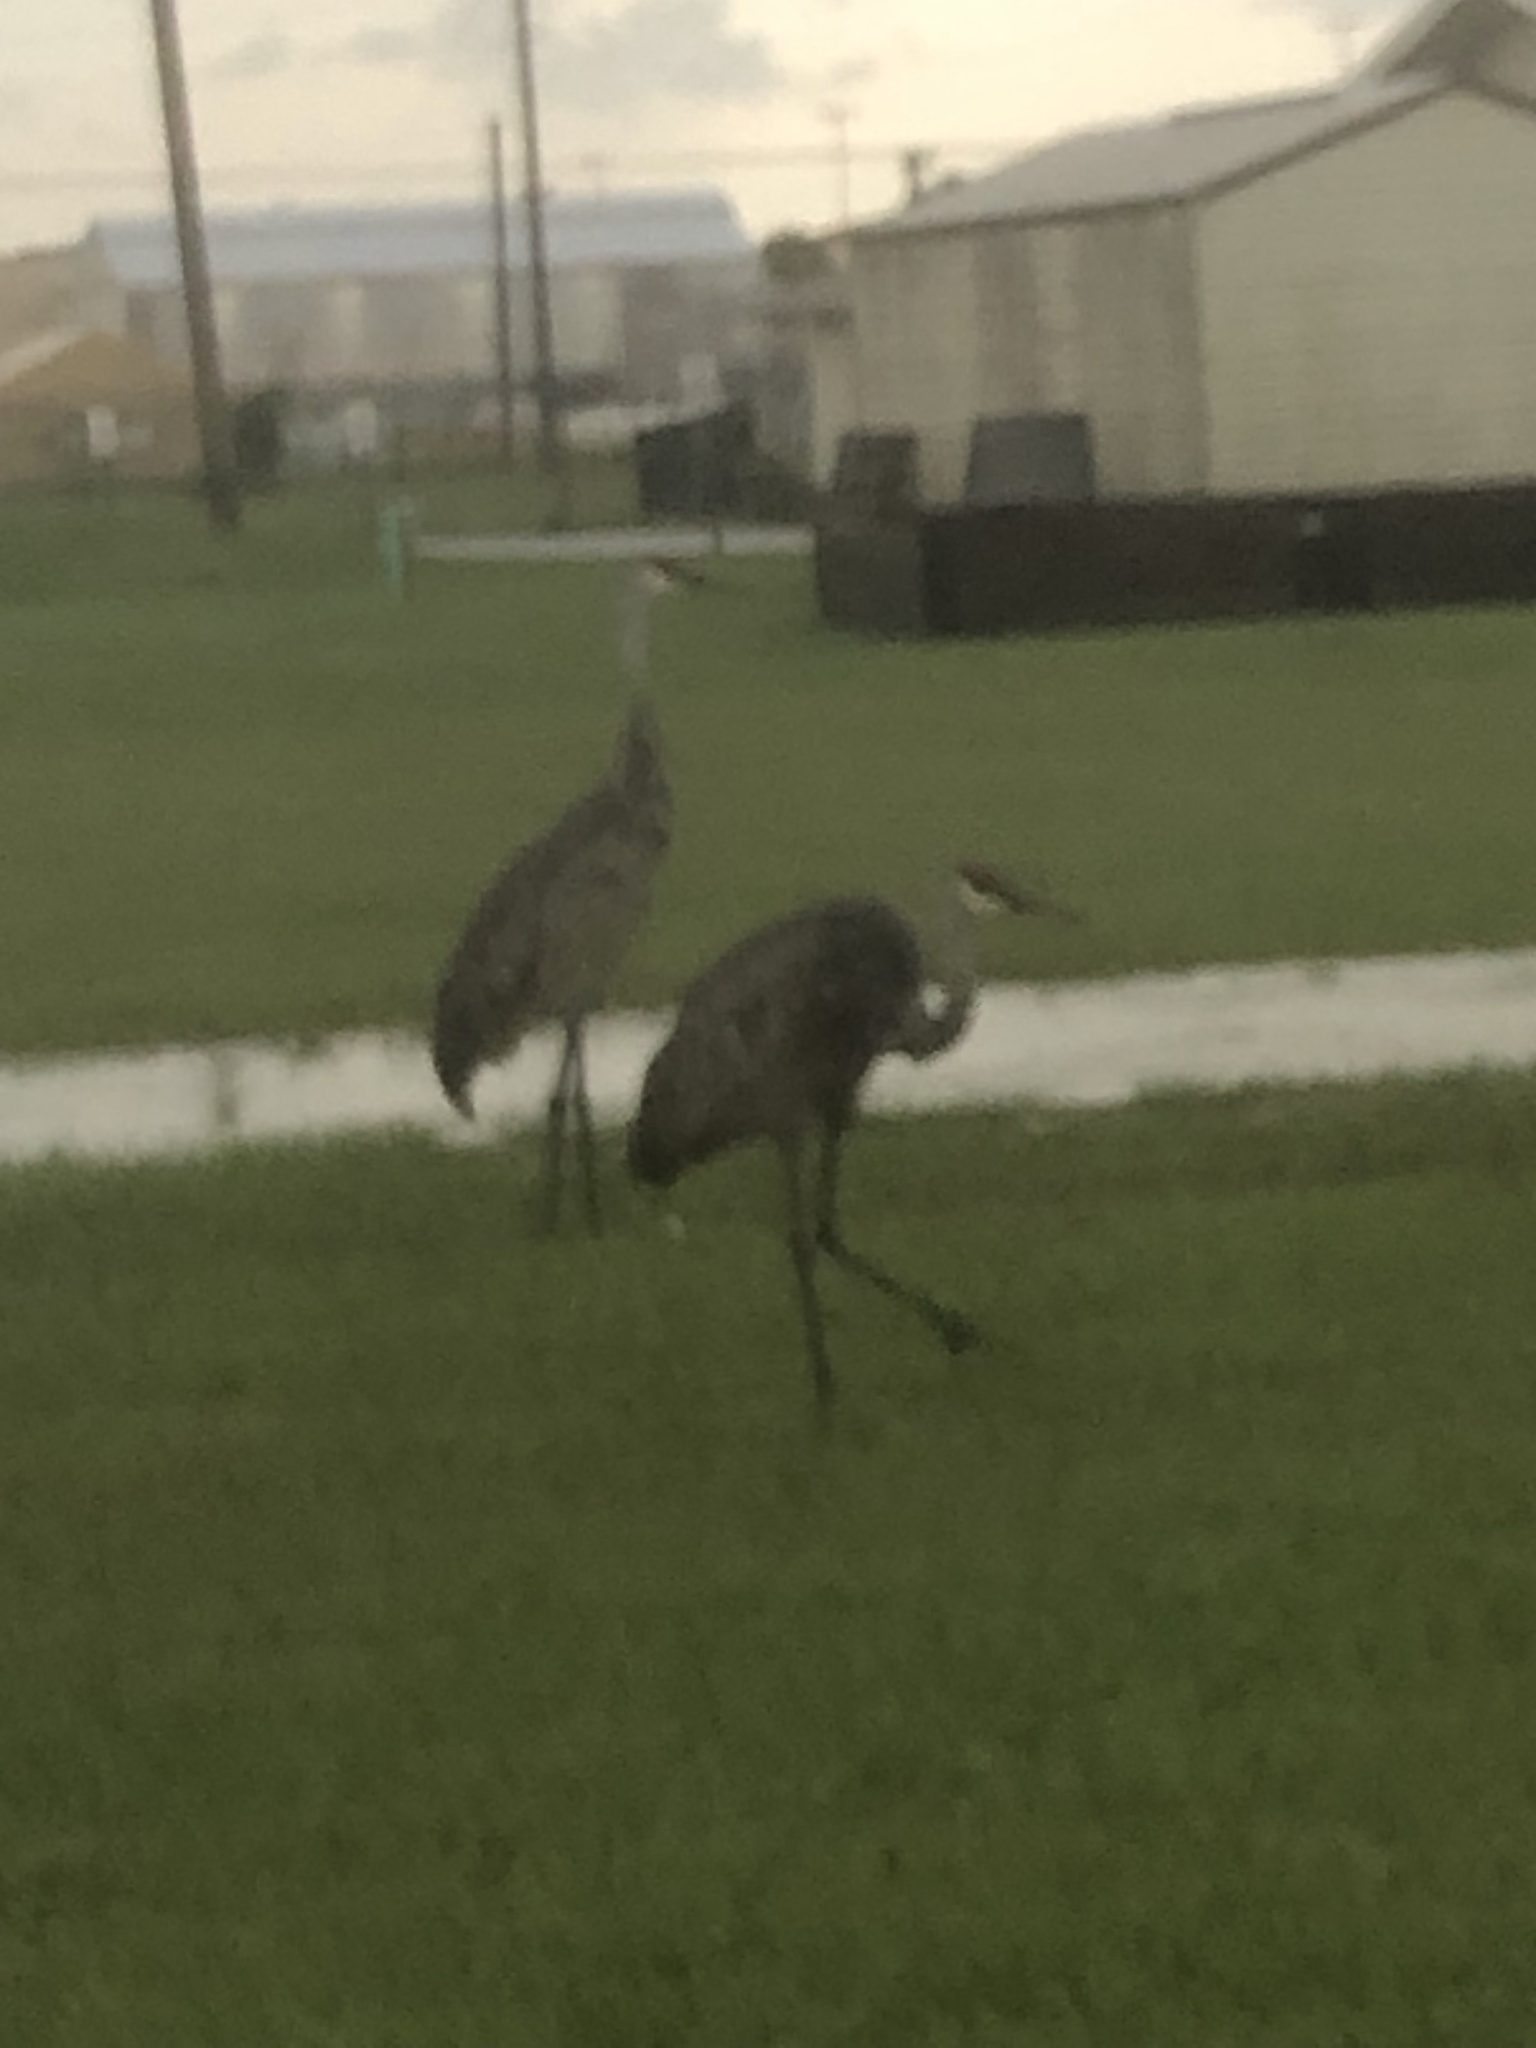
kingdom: Animalia
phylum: Chordata
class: Aves
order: Gruiformes
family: Gruidae
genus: Grus
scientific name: Grus canadensis
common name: Sandhill crane
